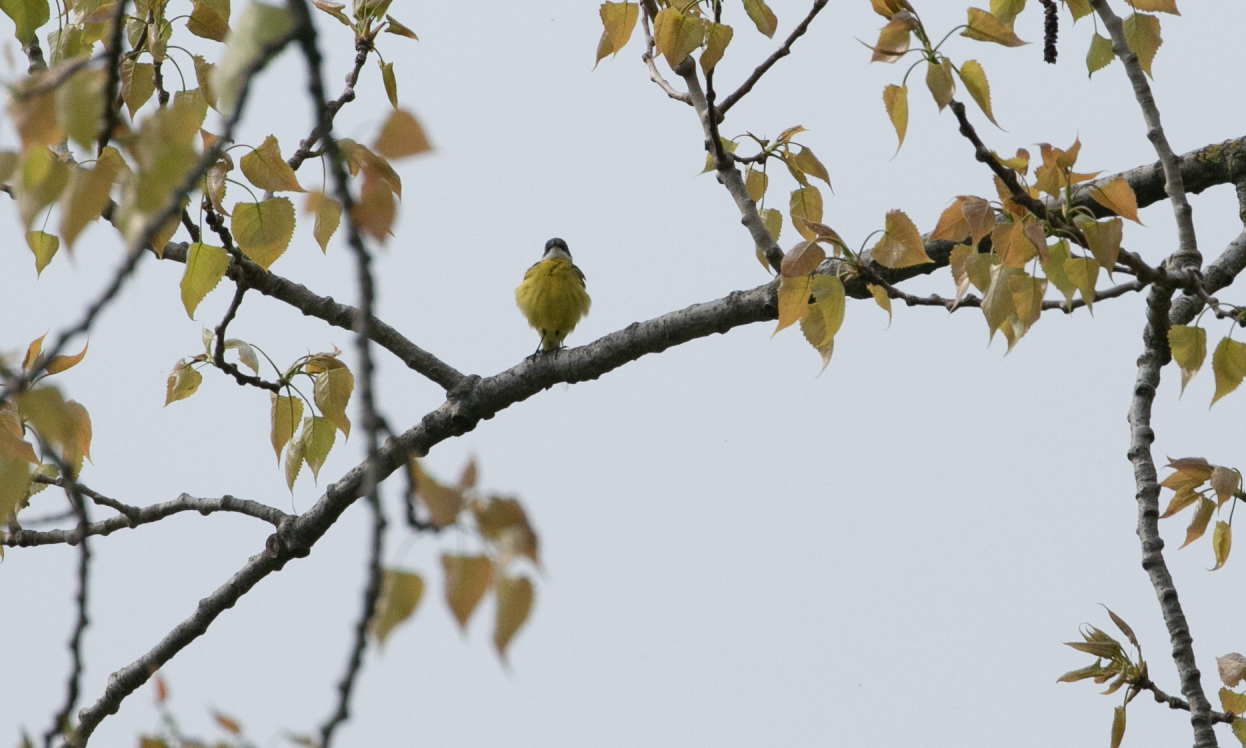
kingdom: Animalia
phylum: Chordata
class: Aves
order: Passeriformes
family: Motacillidae
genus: Motacilla
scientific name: Motacilla flava
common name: Western yellow wagtail
